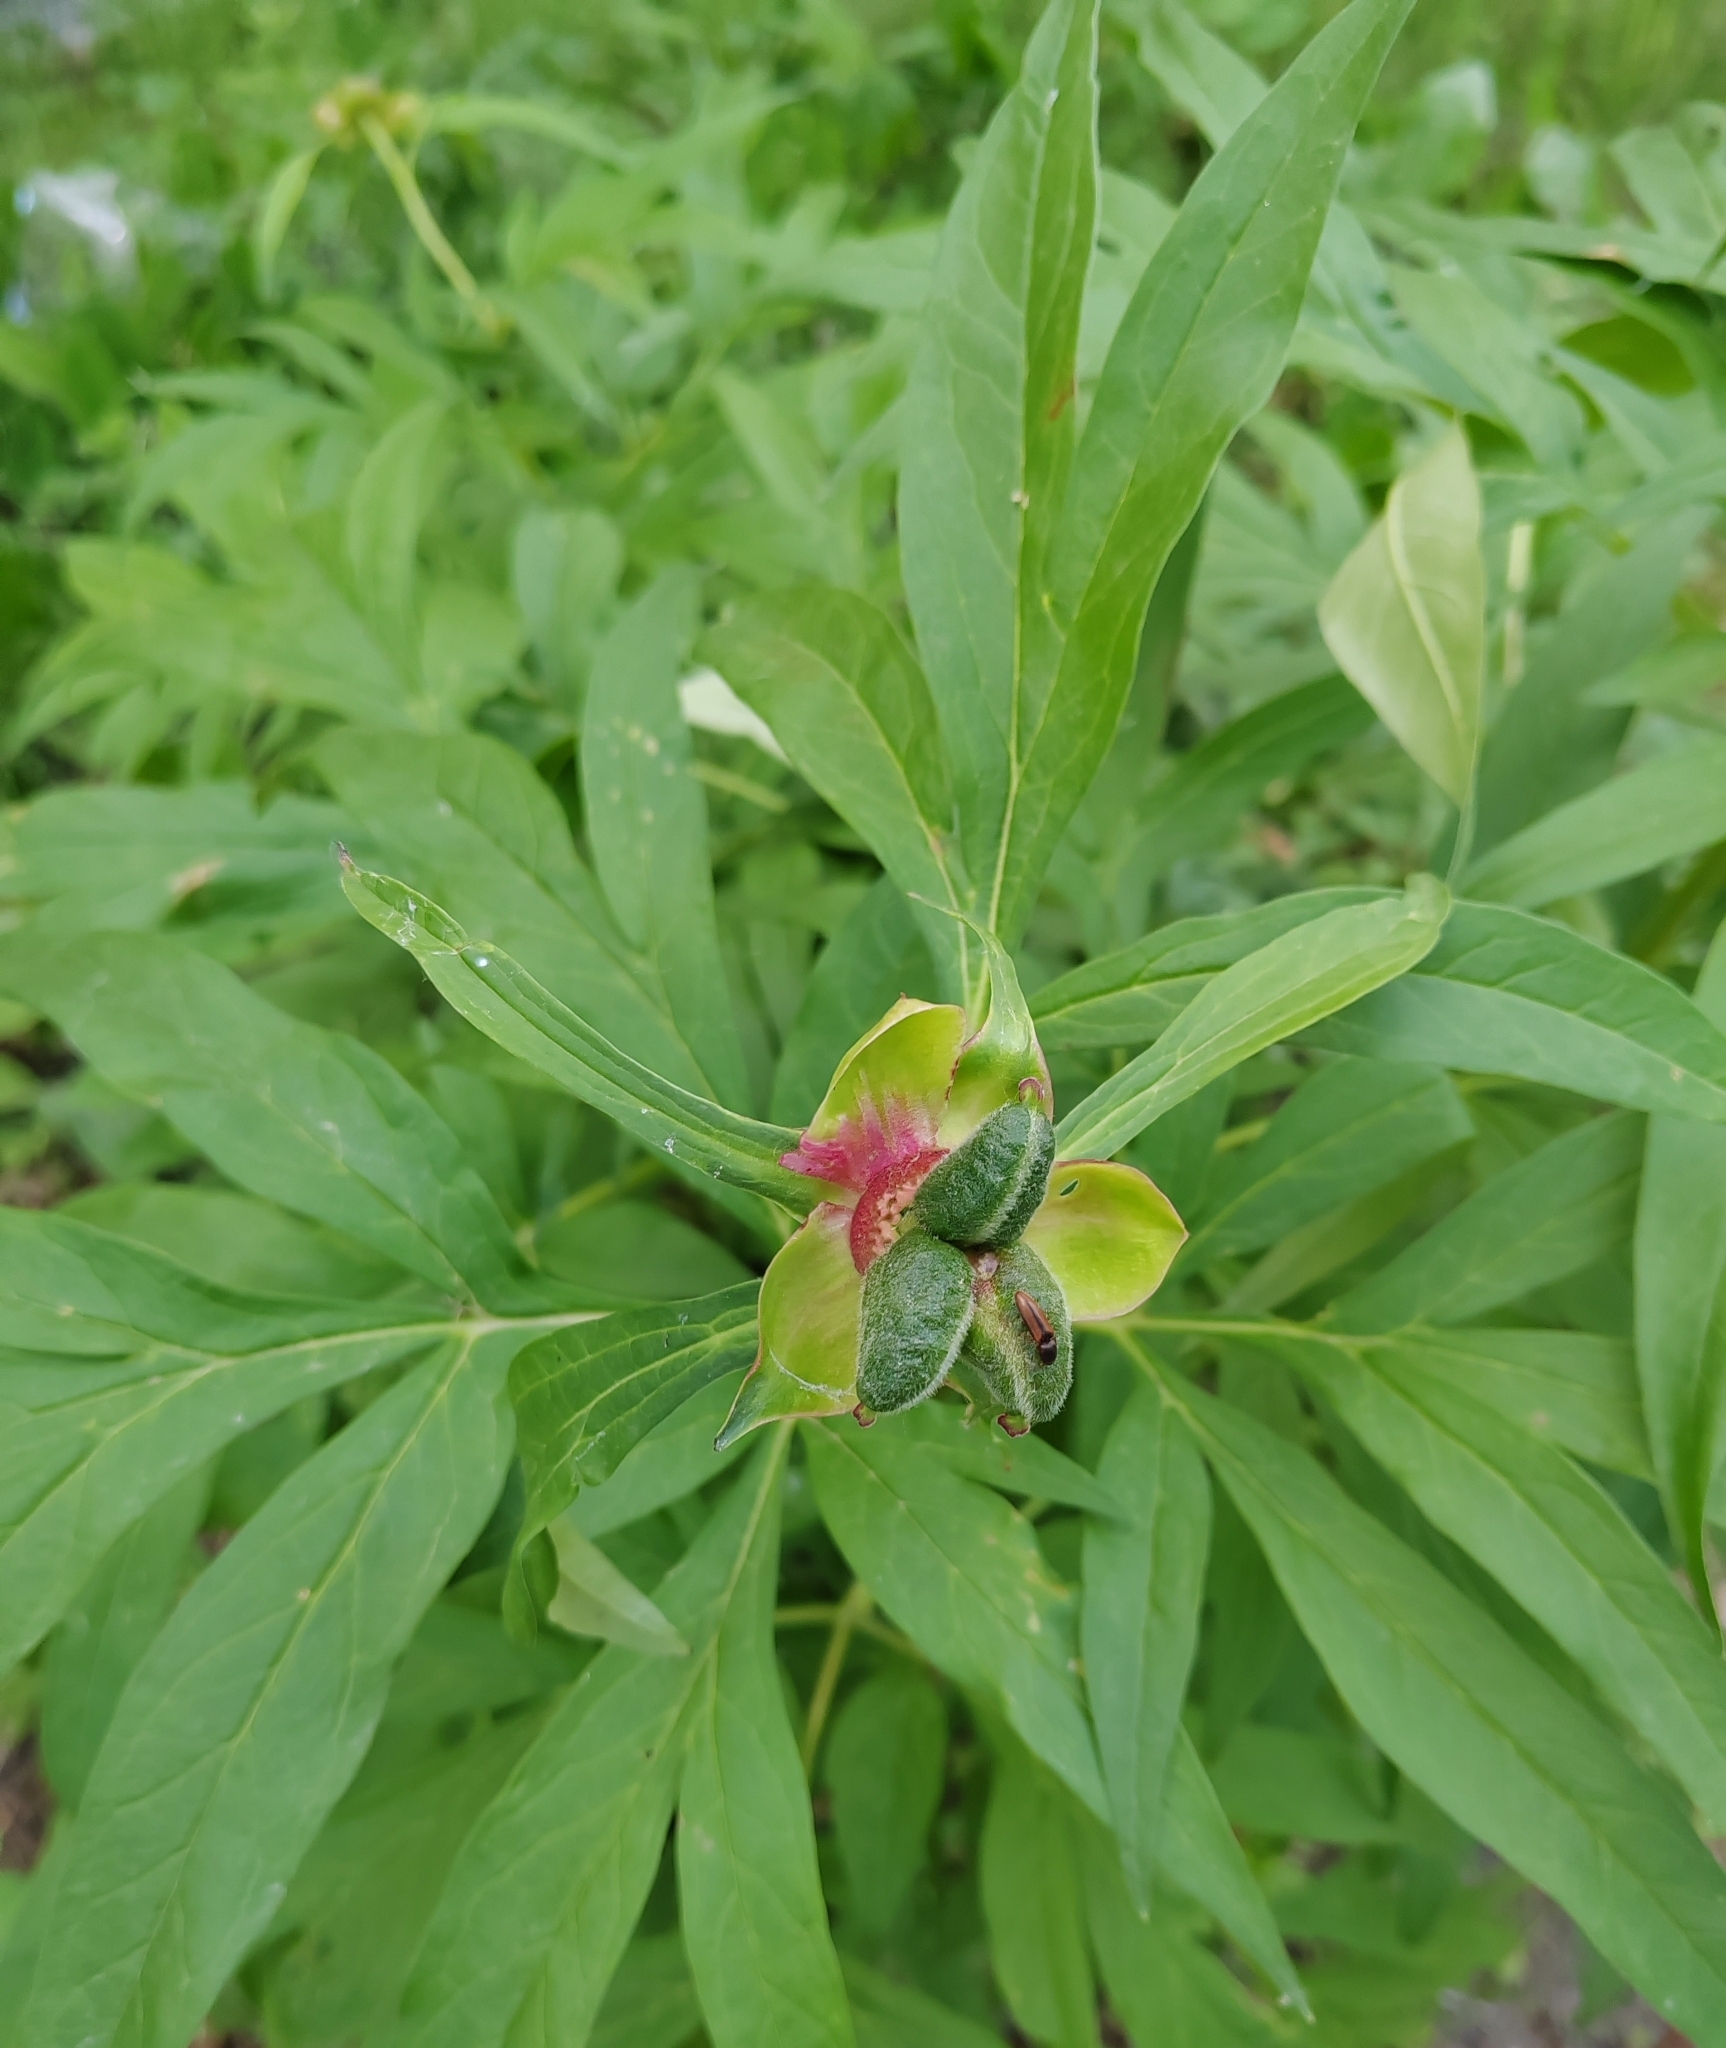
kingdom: Plantae
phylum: Tracheophyta
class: Magnoliopsida
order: Saxifragales
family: Paeoniaceae
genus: Paeonia
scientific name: Paeonia anomala
